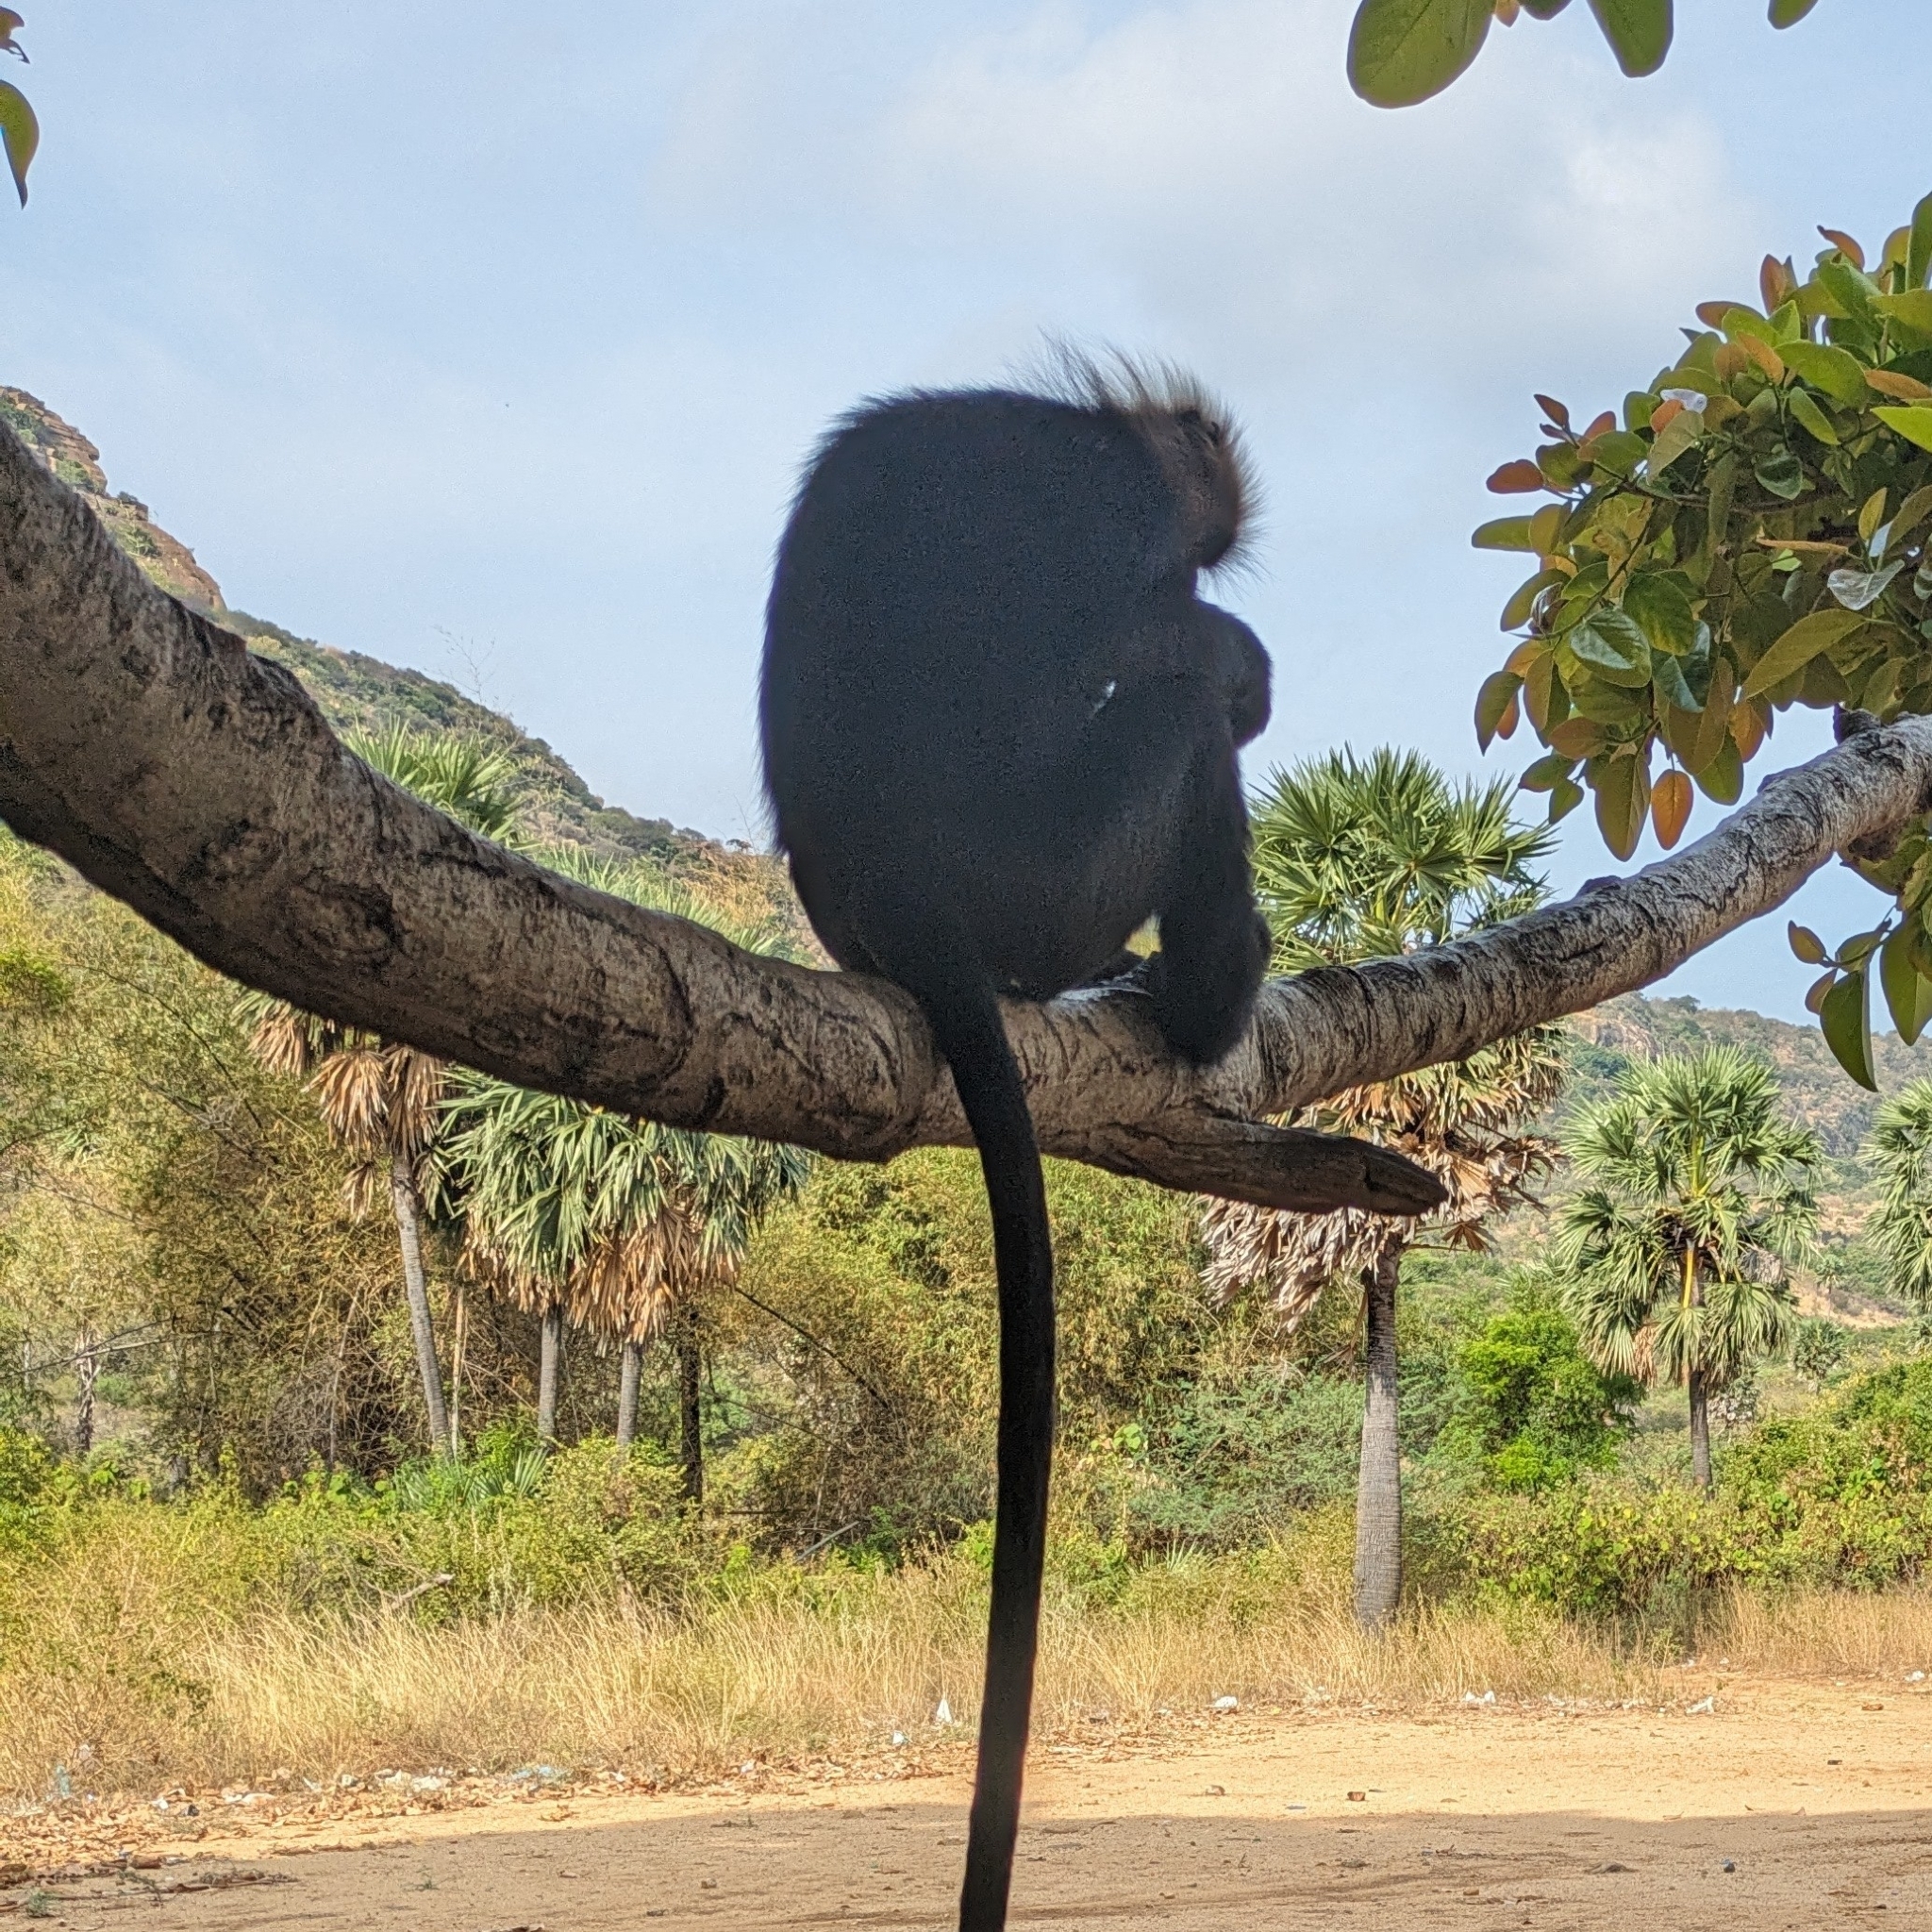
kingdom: Animalia
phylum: Chordata
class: Mammalia
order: Primates
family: Cercopithecidae
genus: Semnopithecus
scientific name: Semnopithecus johnii
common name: Nilgiri langur
